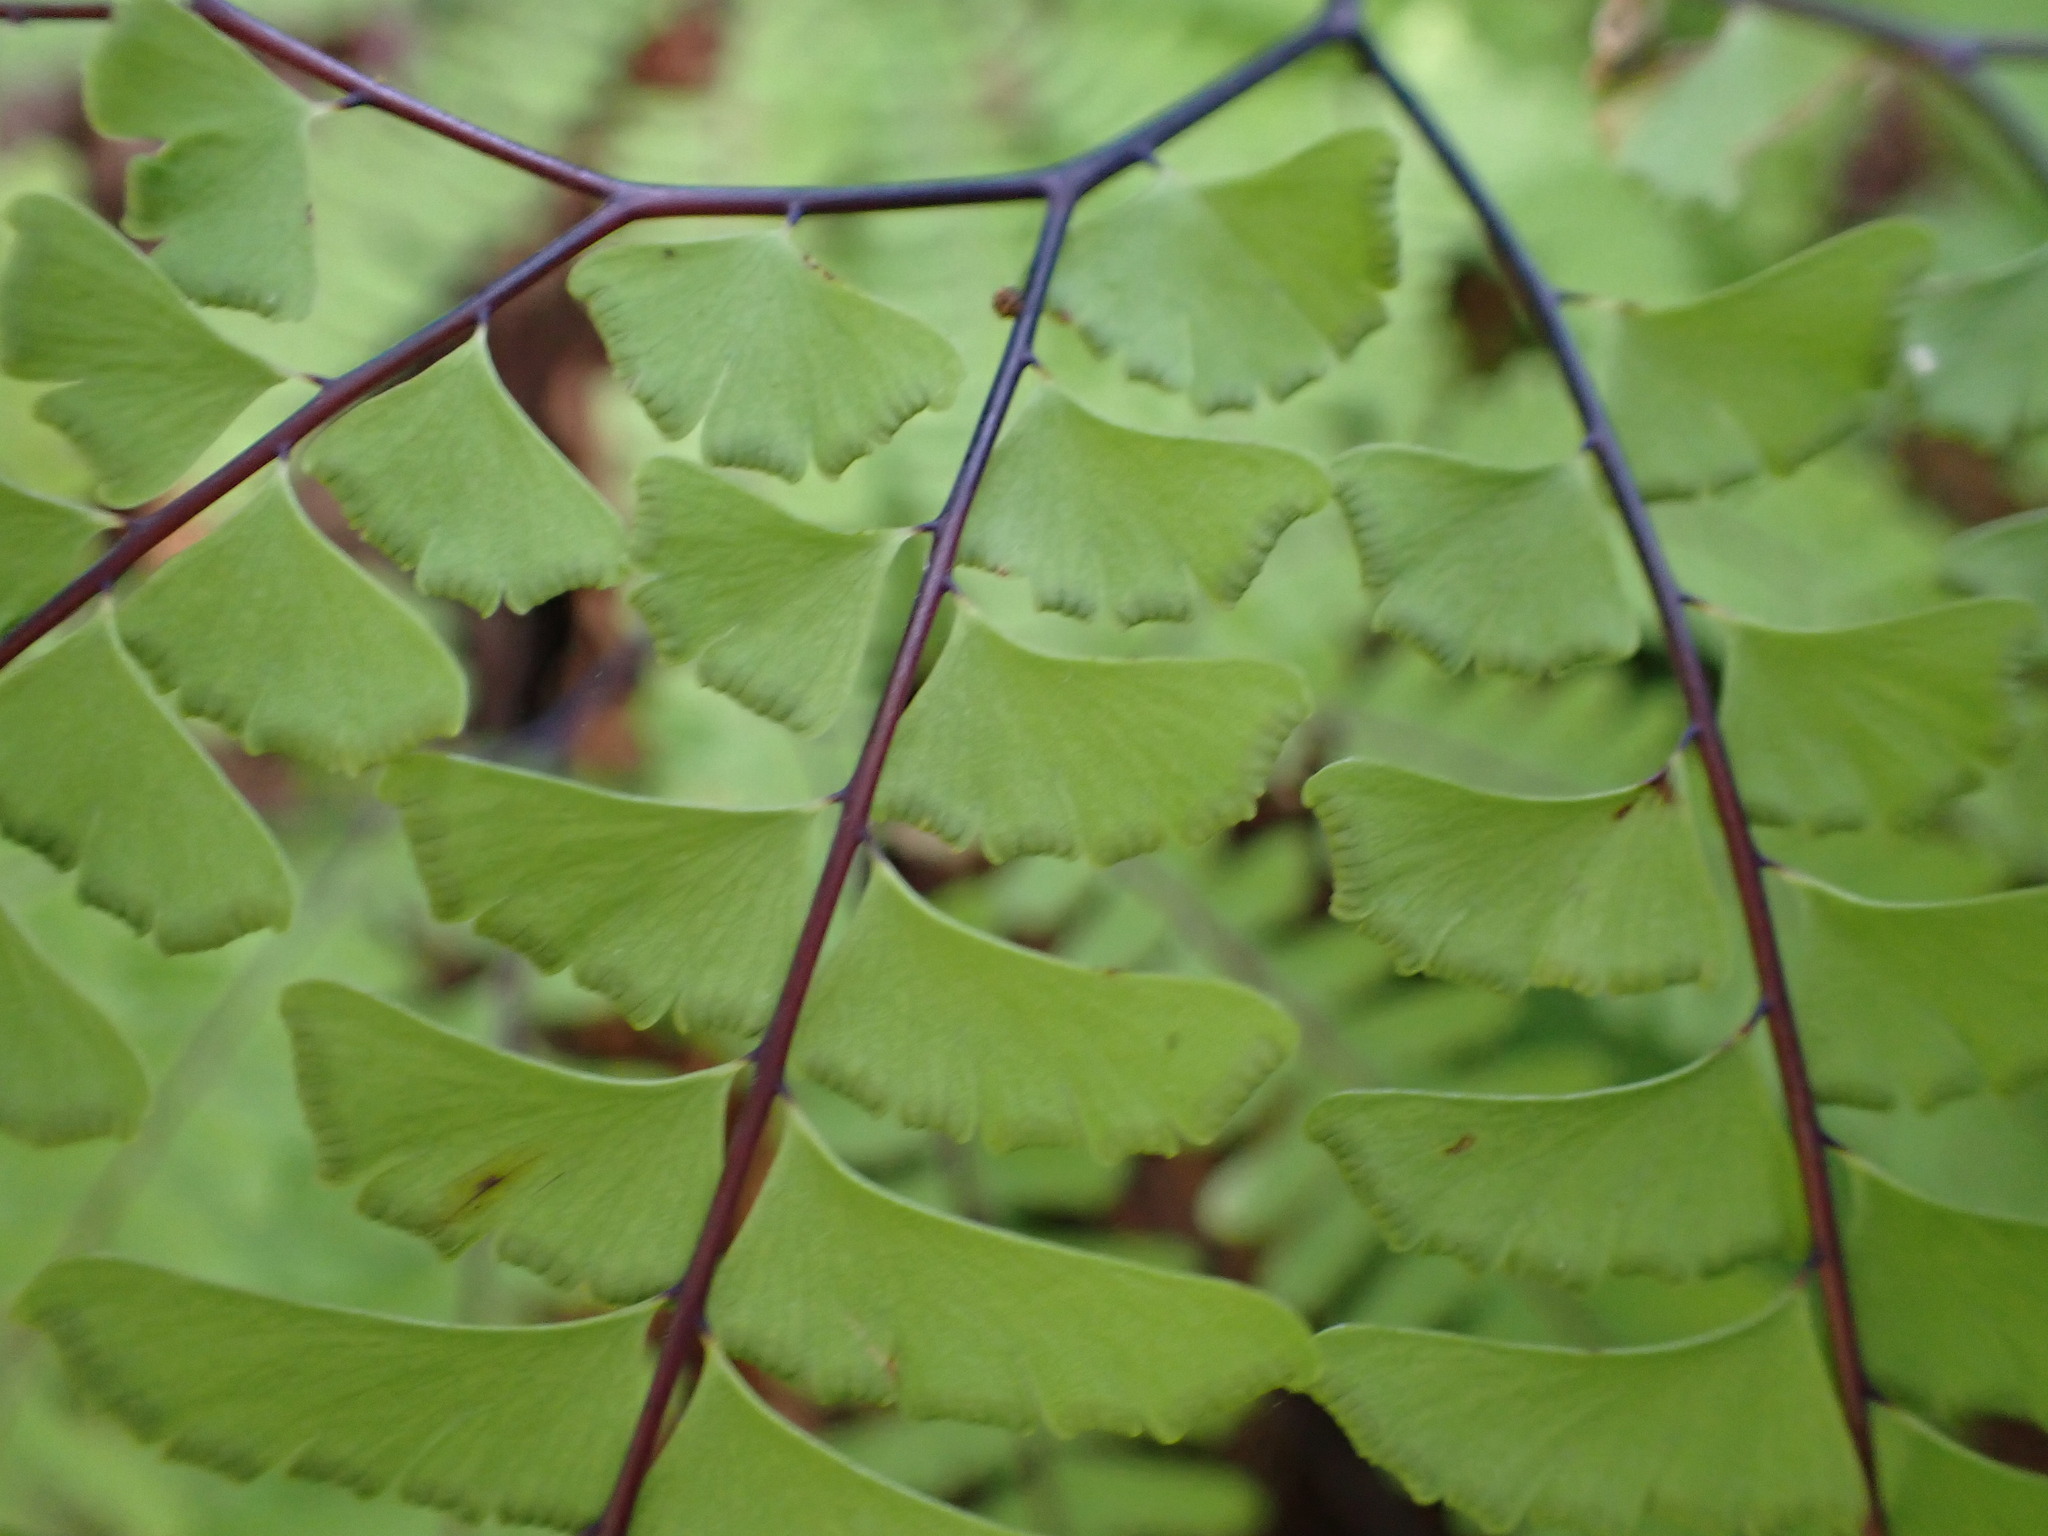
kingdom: Plantae
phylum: Tracheophyta
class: Polypodiopsida
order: Polypodiales
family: Pteridaceae
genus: Adiantum
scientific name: Adiantum aleuticum
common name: Aleutian maidenhair fern
